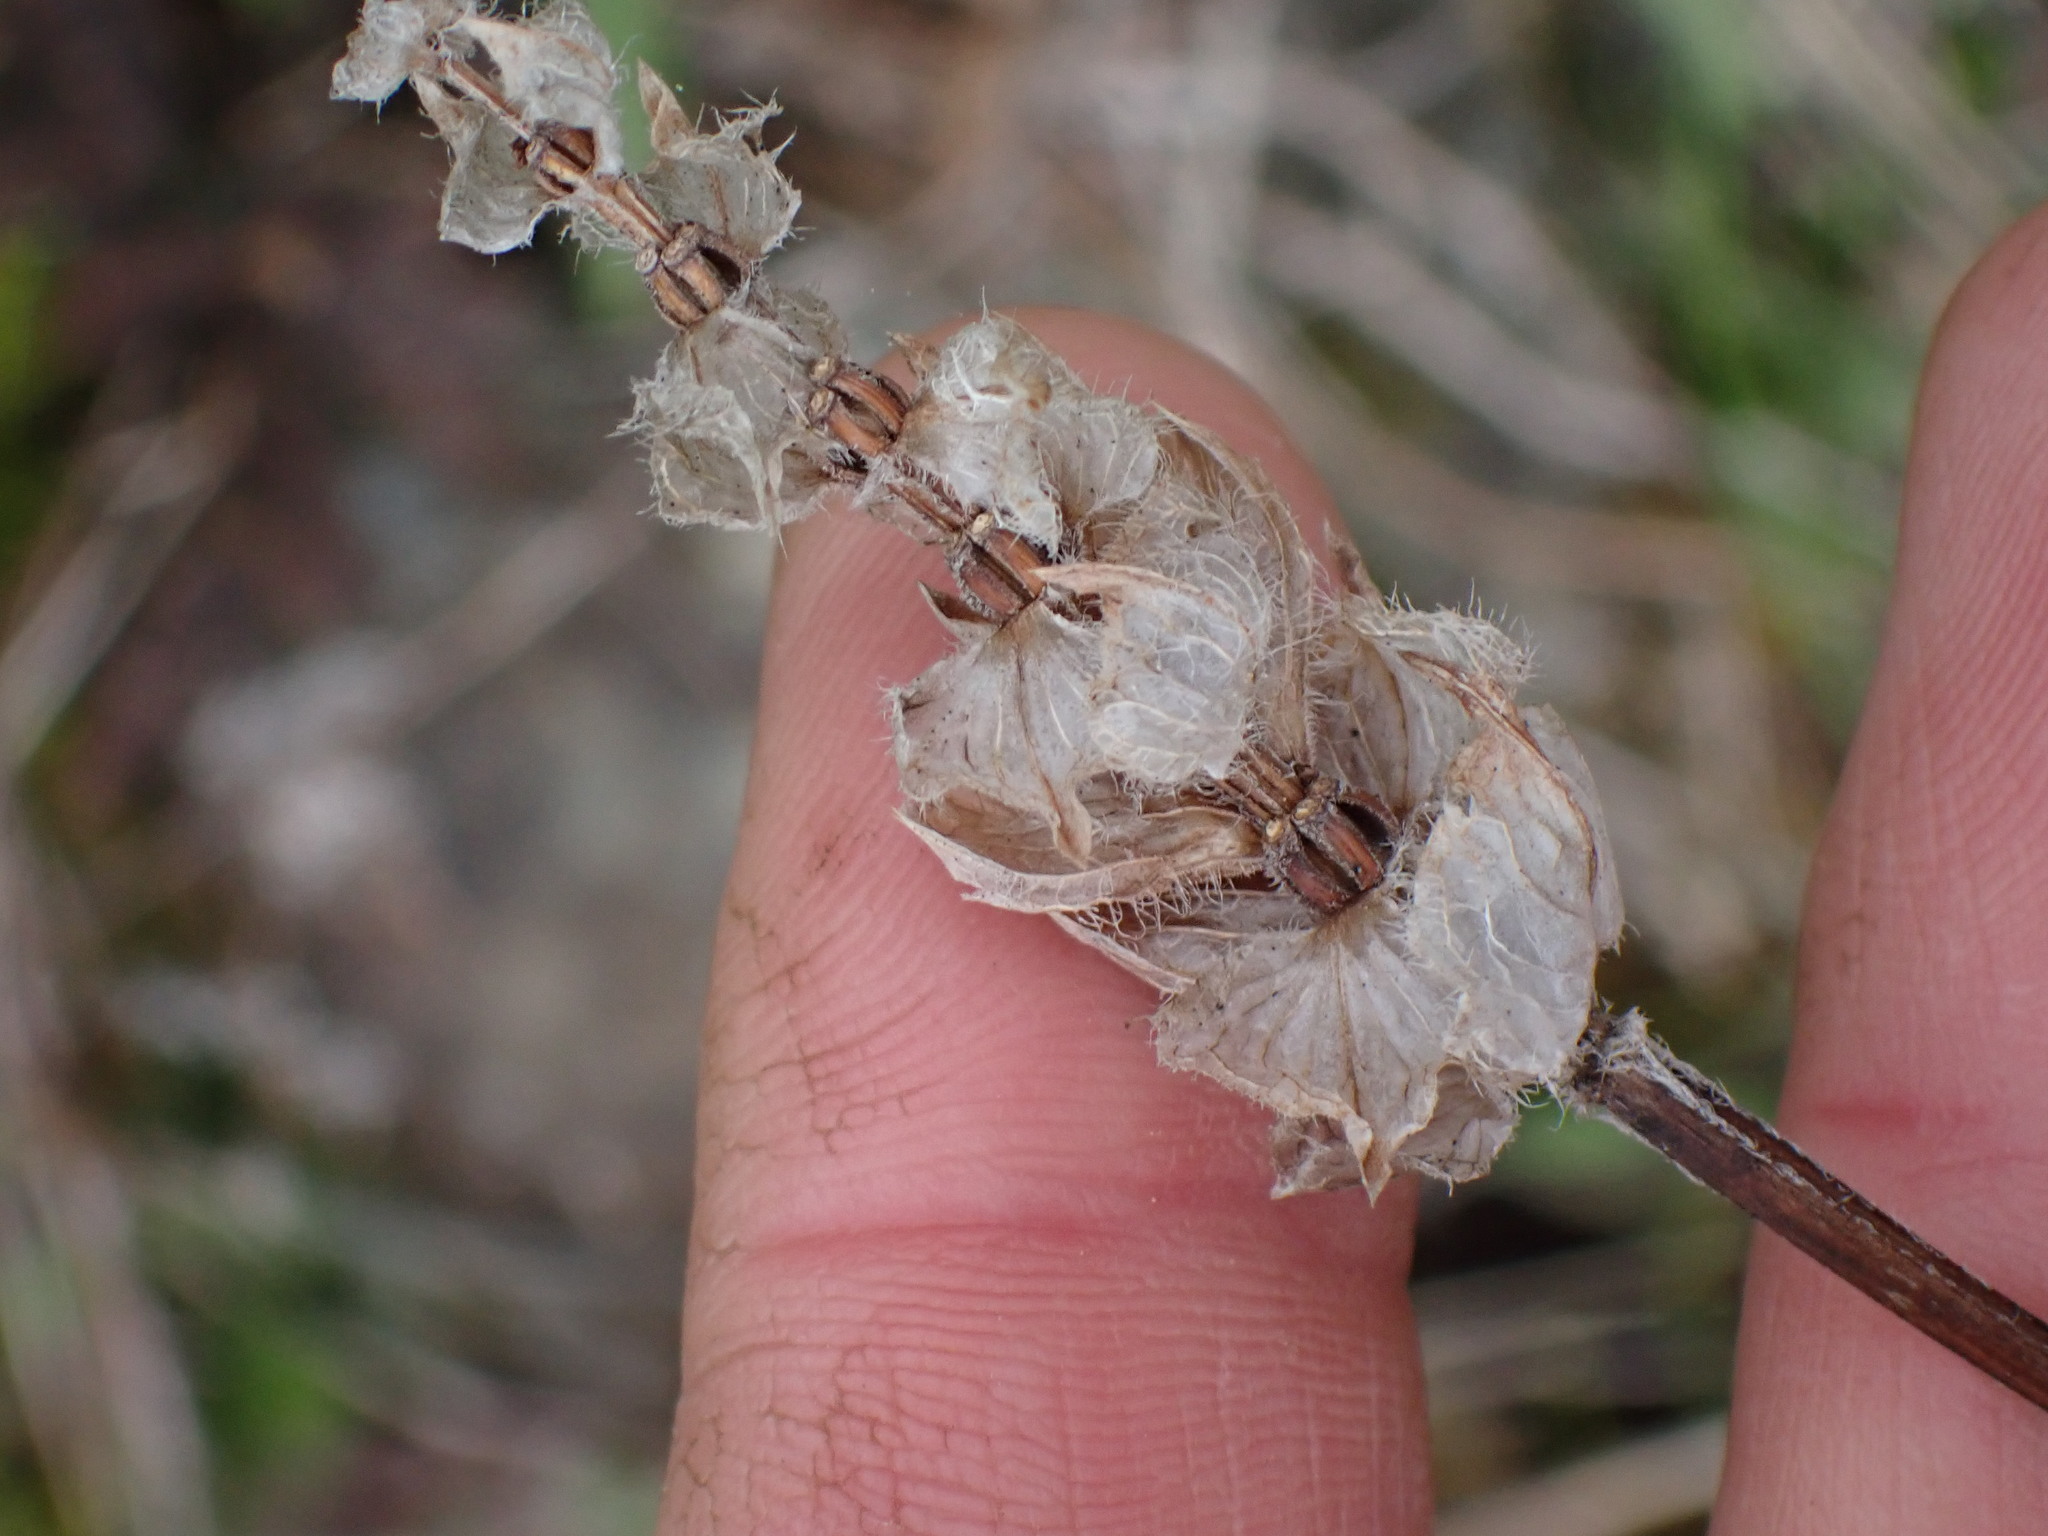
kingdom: Plantae
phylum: Tracheophyta
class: Magnoliopsida
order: Lamiales
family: Lamiaceae
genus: Prunella
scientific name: Prunella vulgaris
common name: Heal-all
